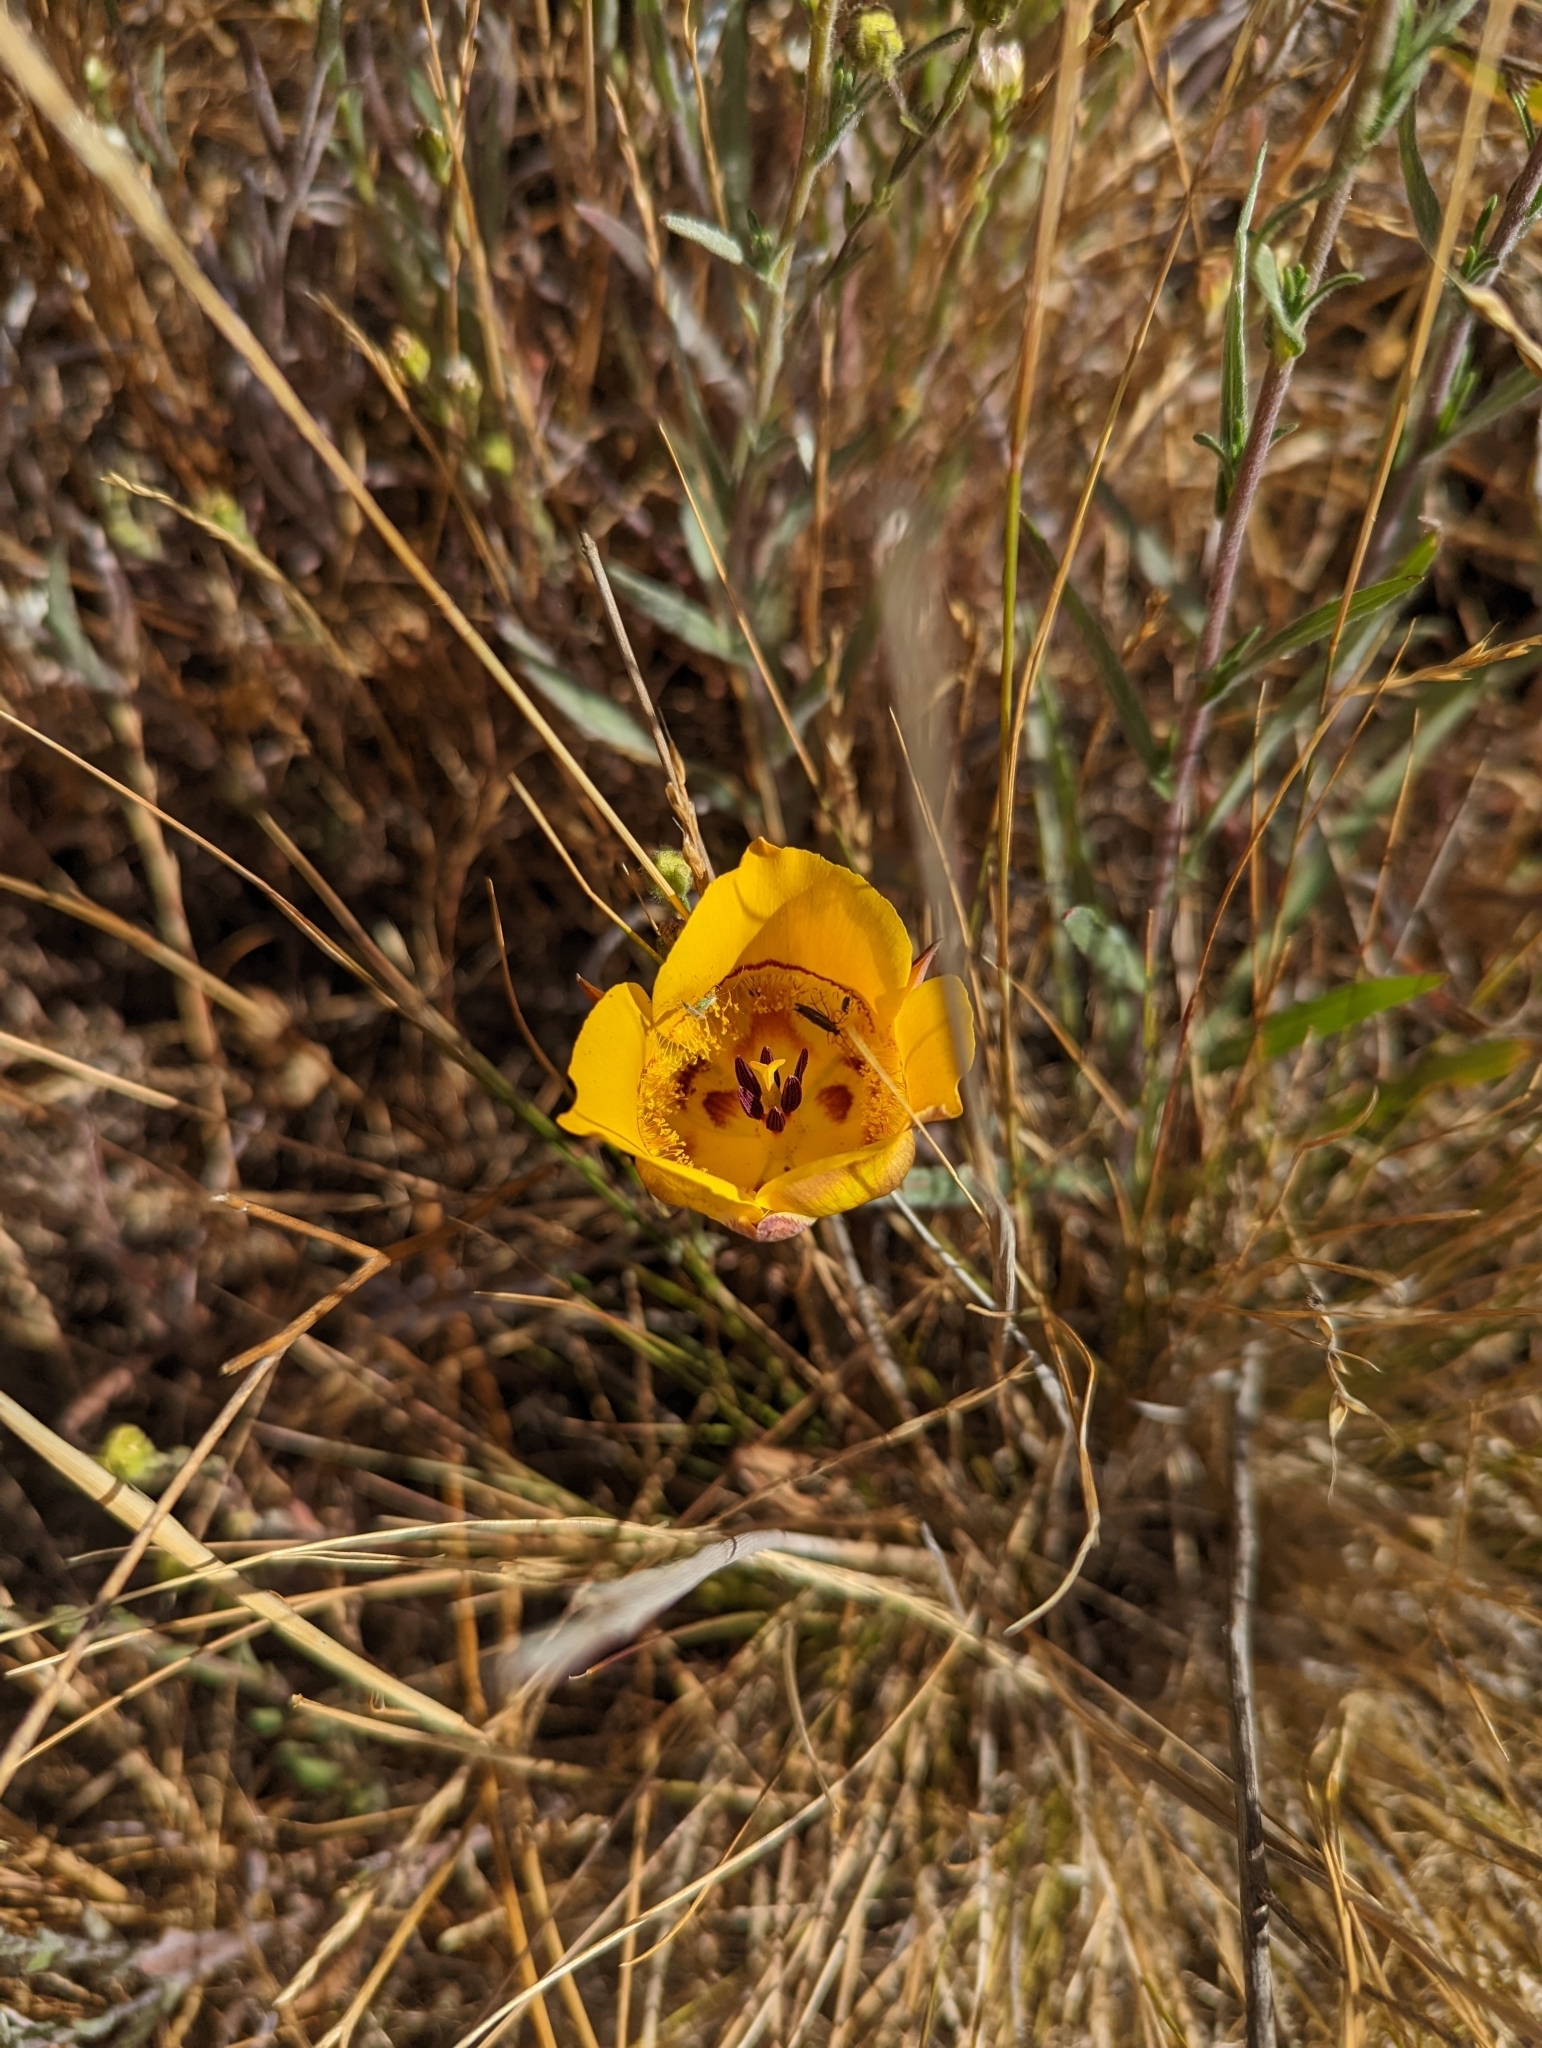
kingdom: Plantae
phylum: Tracheophyta
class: Liliopsida
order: Liliales
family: Liliaceae
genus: Calochortus
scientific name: Calochortus clavatus
